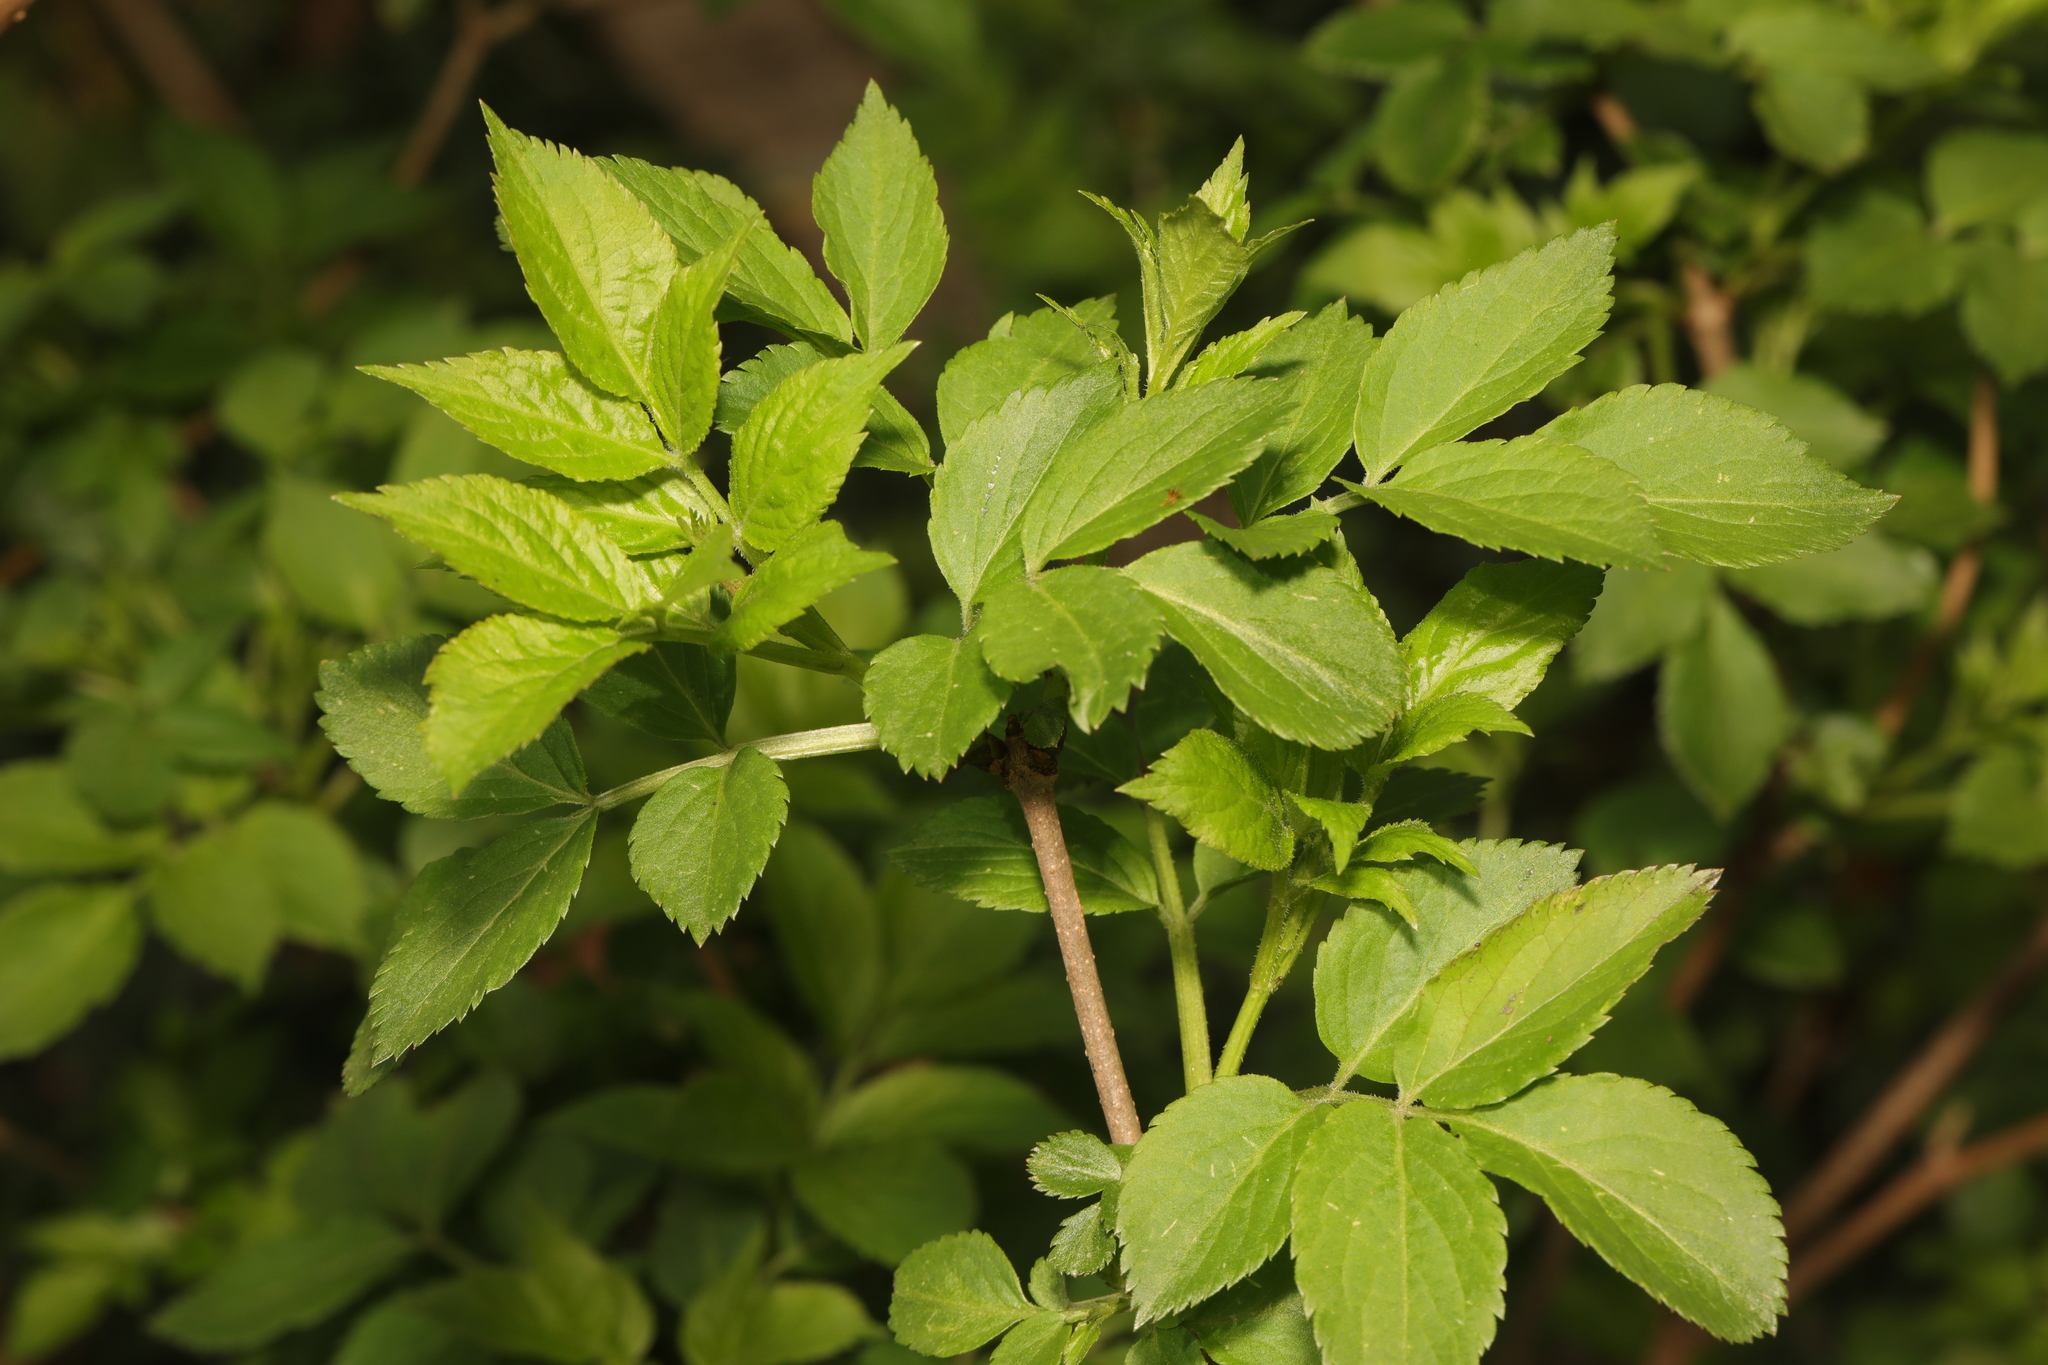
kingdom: Plantae
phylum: Tracheophyta
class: Magnoliopsida
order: Dipsacales
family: Viburnaceae
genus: Sambucus
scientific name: Sambucus nigra
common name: Elder
